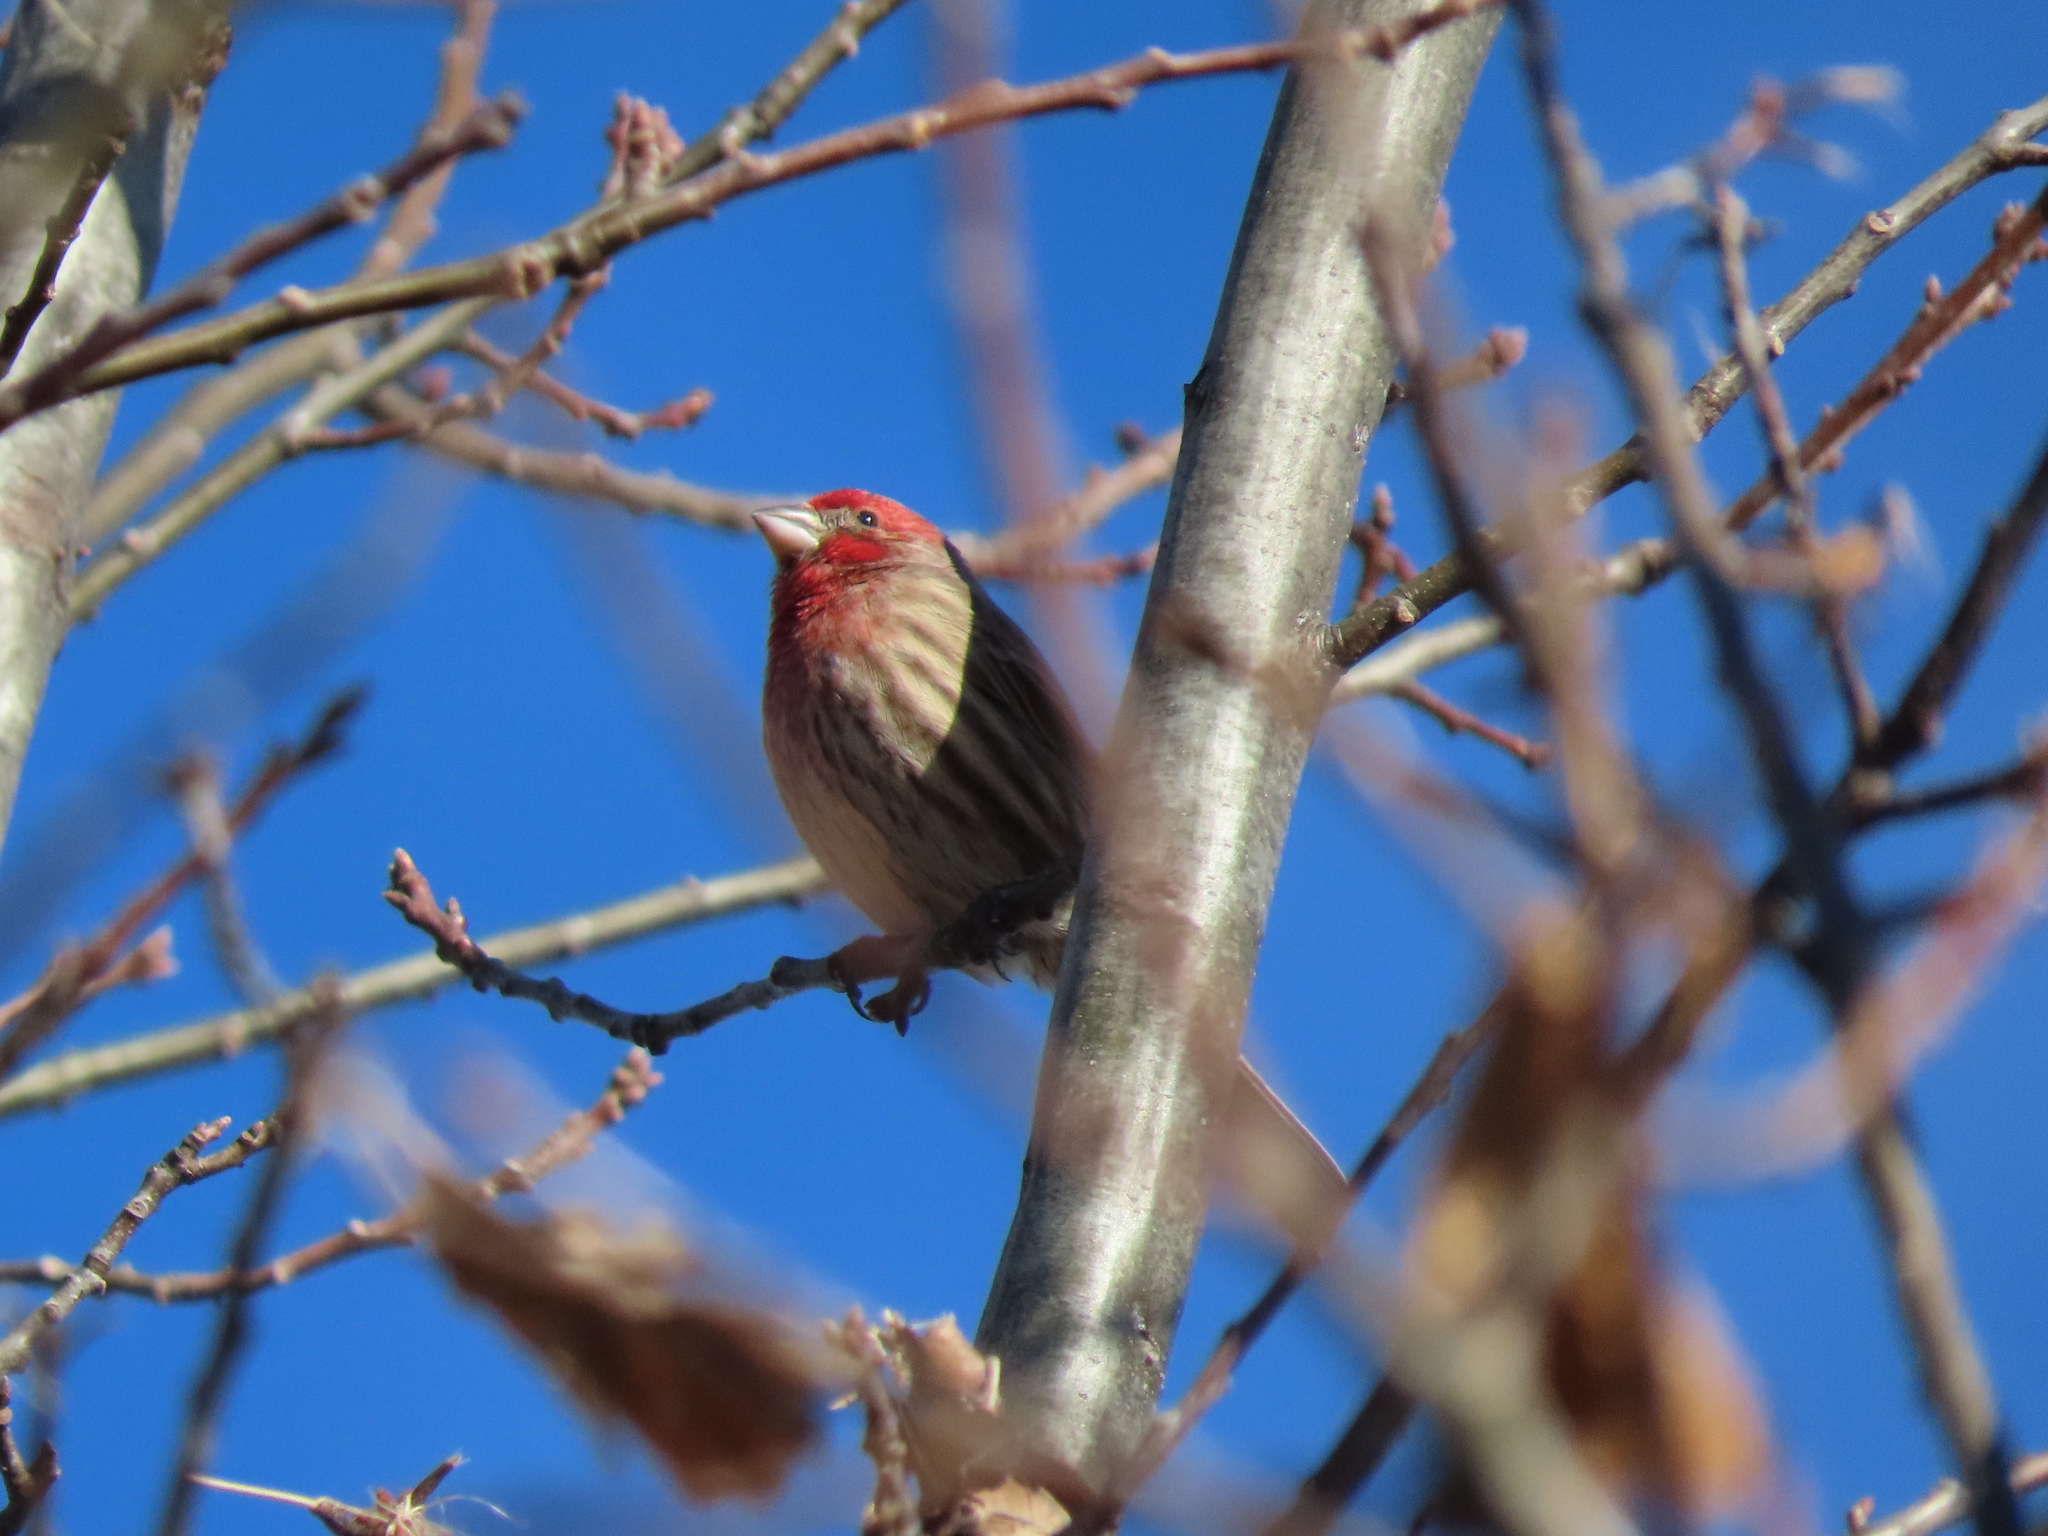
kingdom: Animalia
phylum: Chordata
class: Aves
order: Passeriformes
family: Fringillidae
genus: Haemorhous
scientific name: Haemorhous mexicanus
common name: House finch
